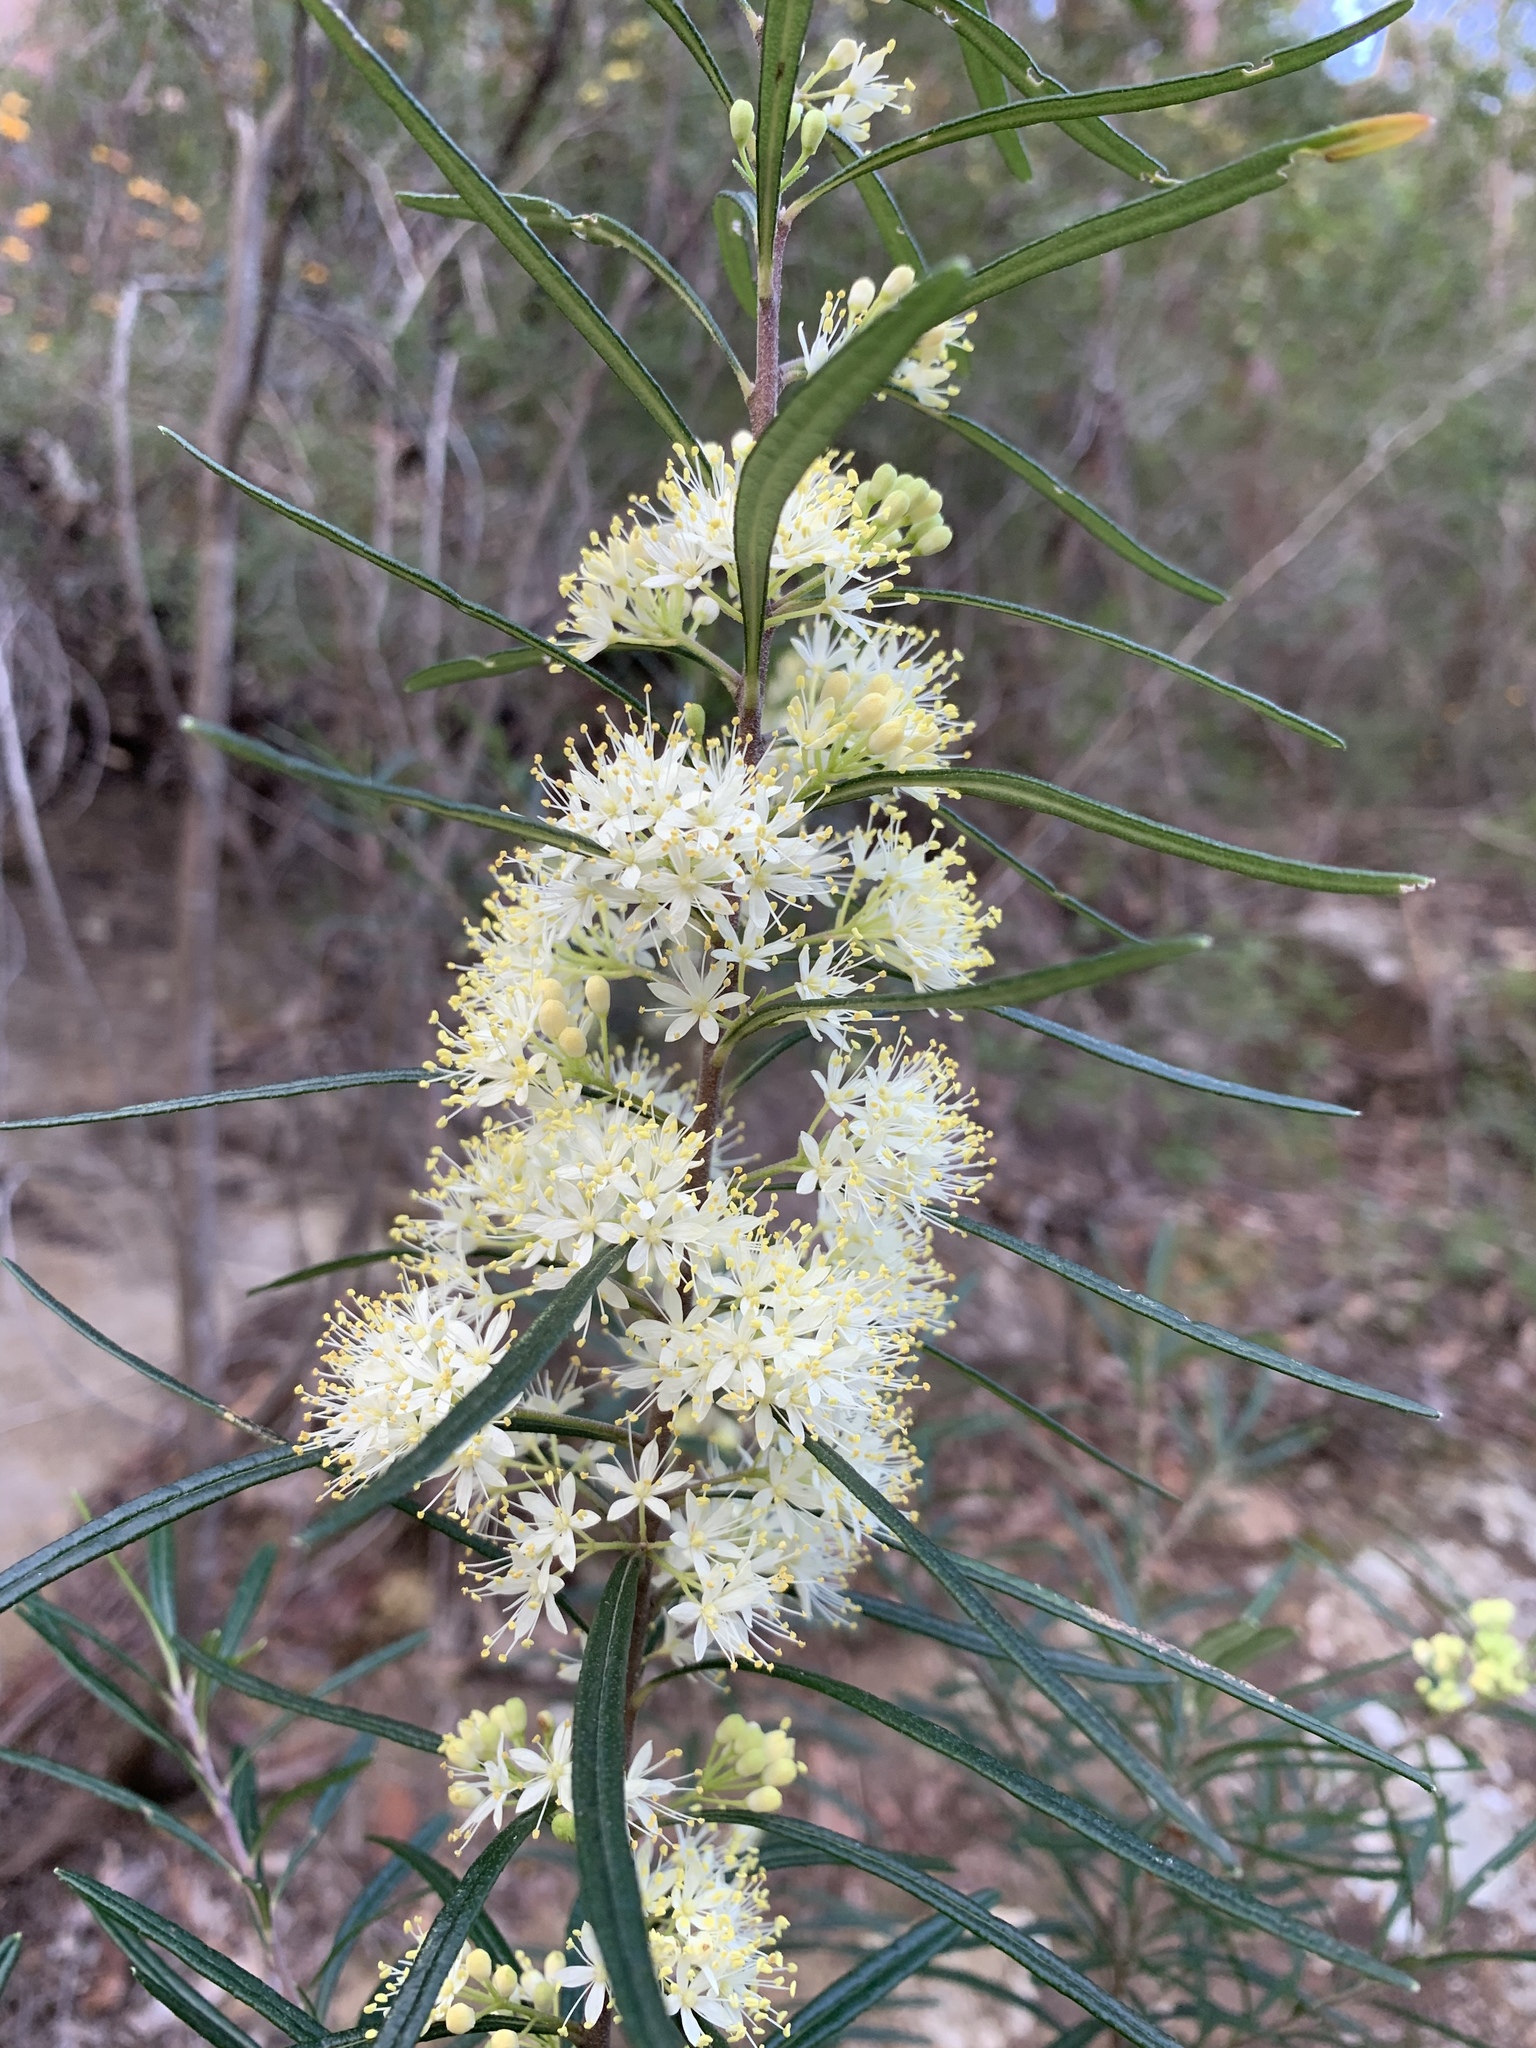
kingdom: Plantae
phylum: Tracheophyta
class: Magnoliopsida
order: Sapindales
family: Rutaceae
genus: Leionema
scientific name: Leionema dentatum
